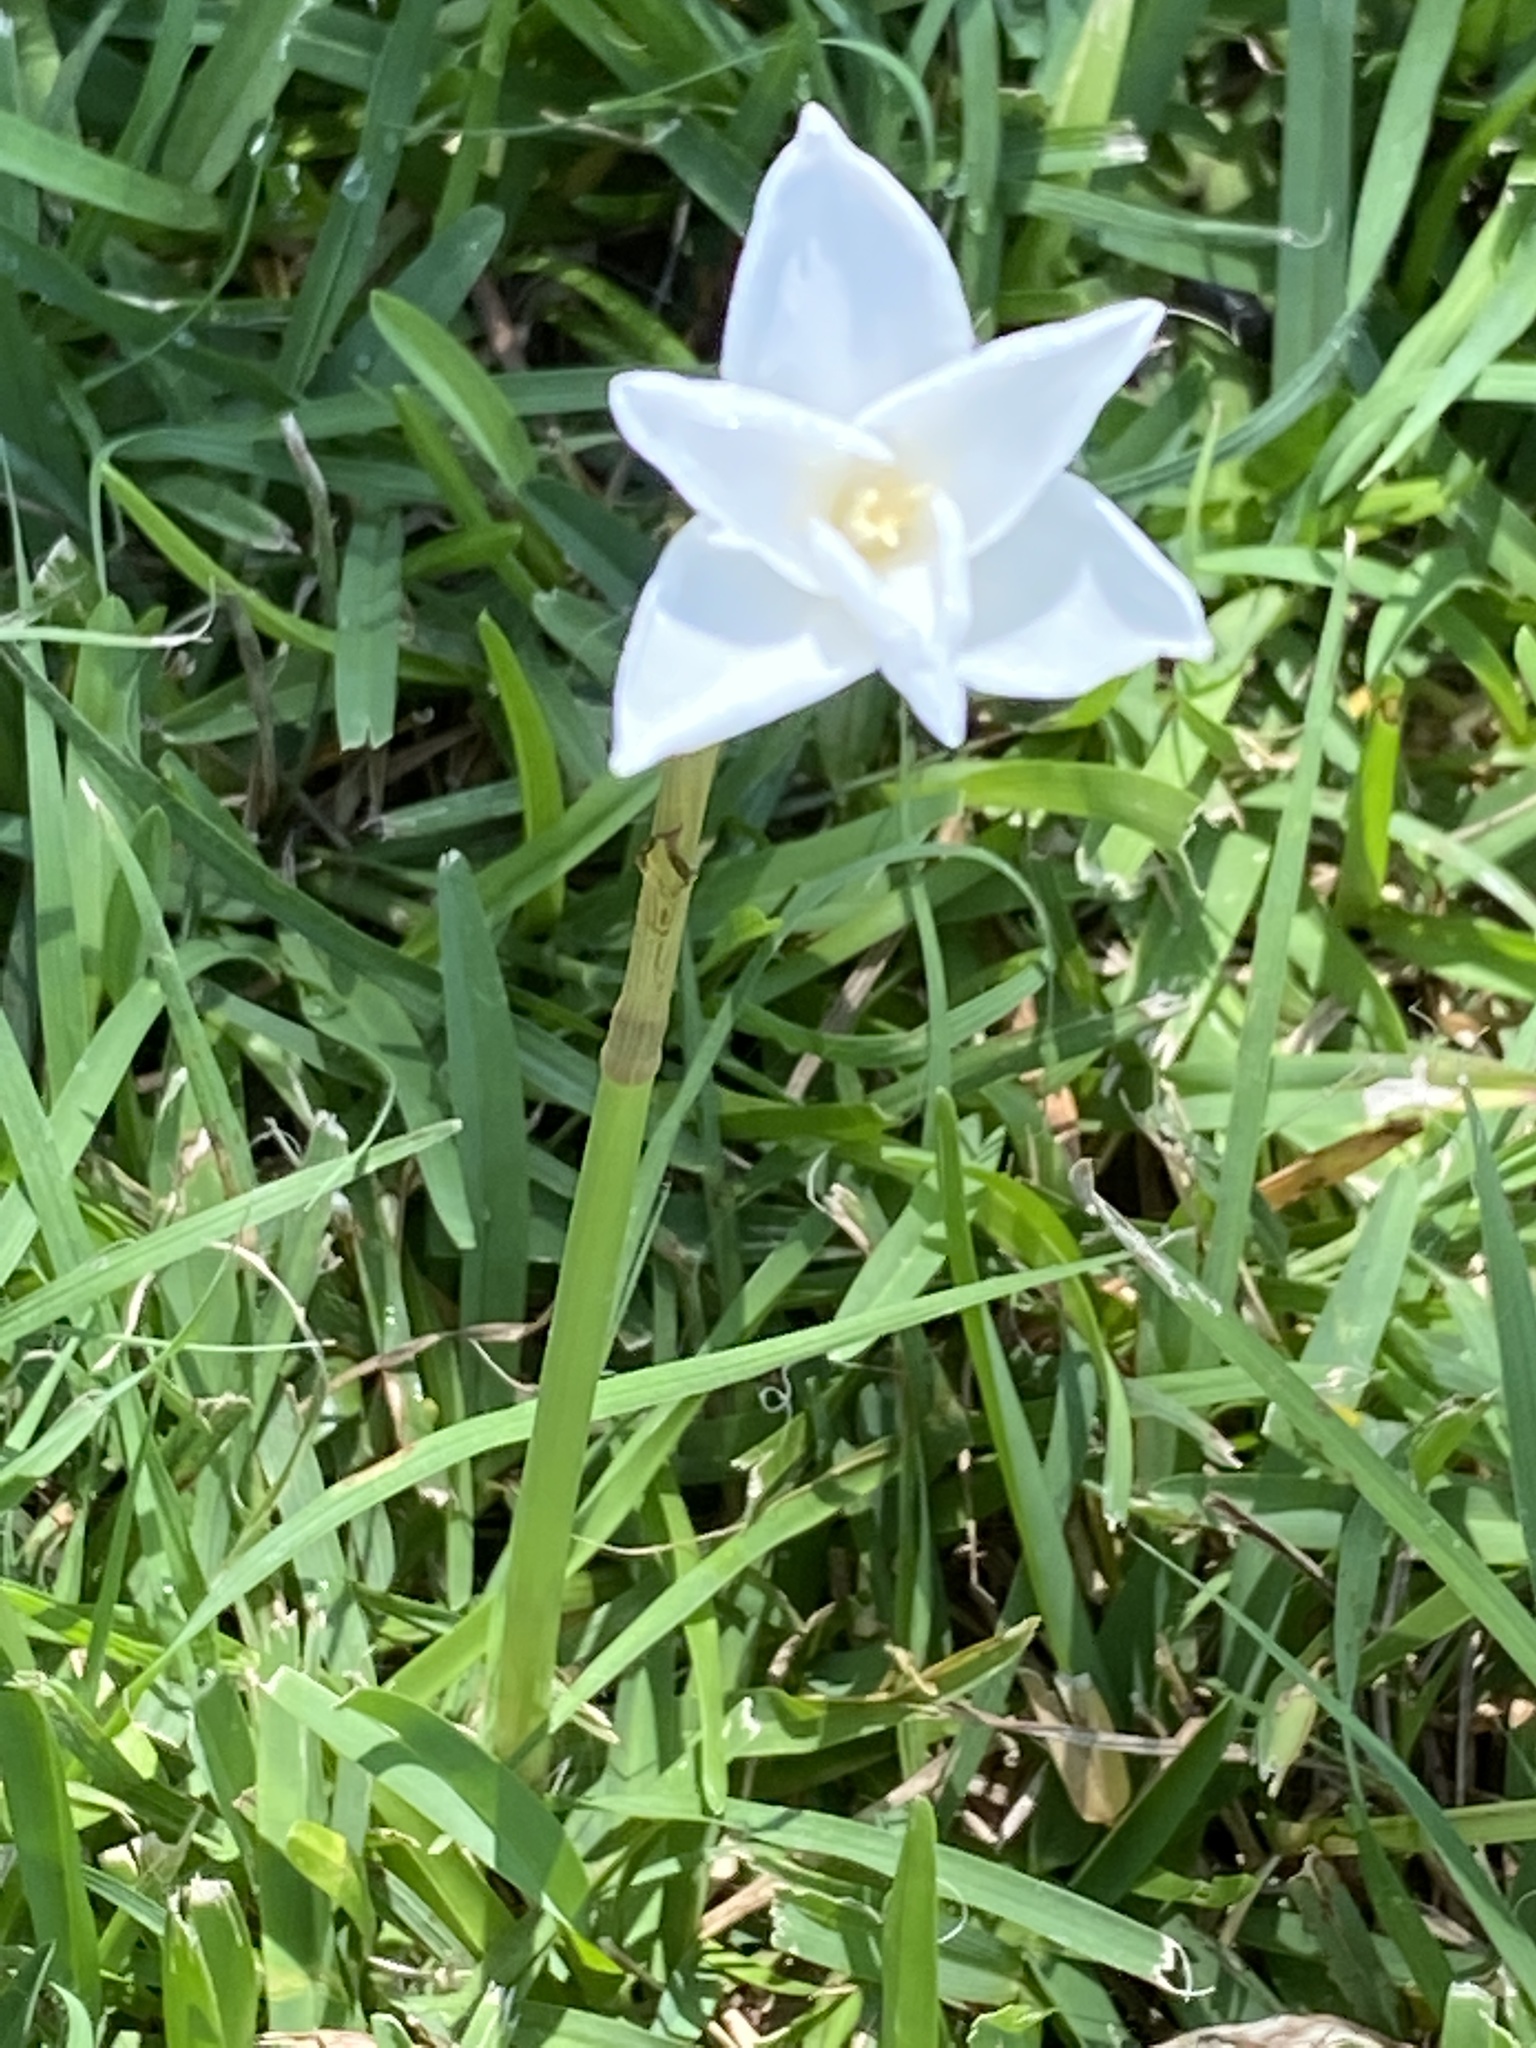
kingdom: Plantae
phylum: Tracheophyta
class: Liliopsida
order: Asparagales
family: Amaryllidaceae
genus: Zephyranthes
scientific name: Zephyranthes chlorosolen
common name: Evening rain-lily
